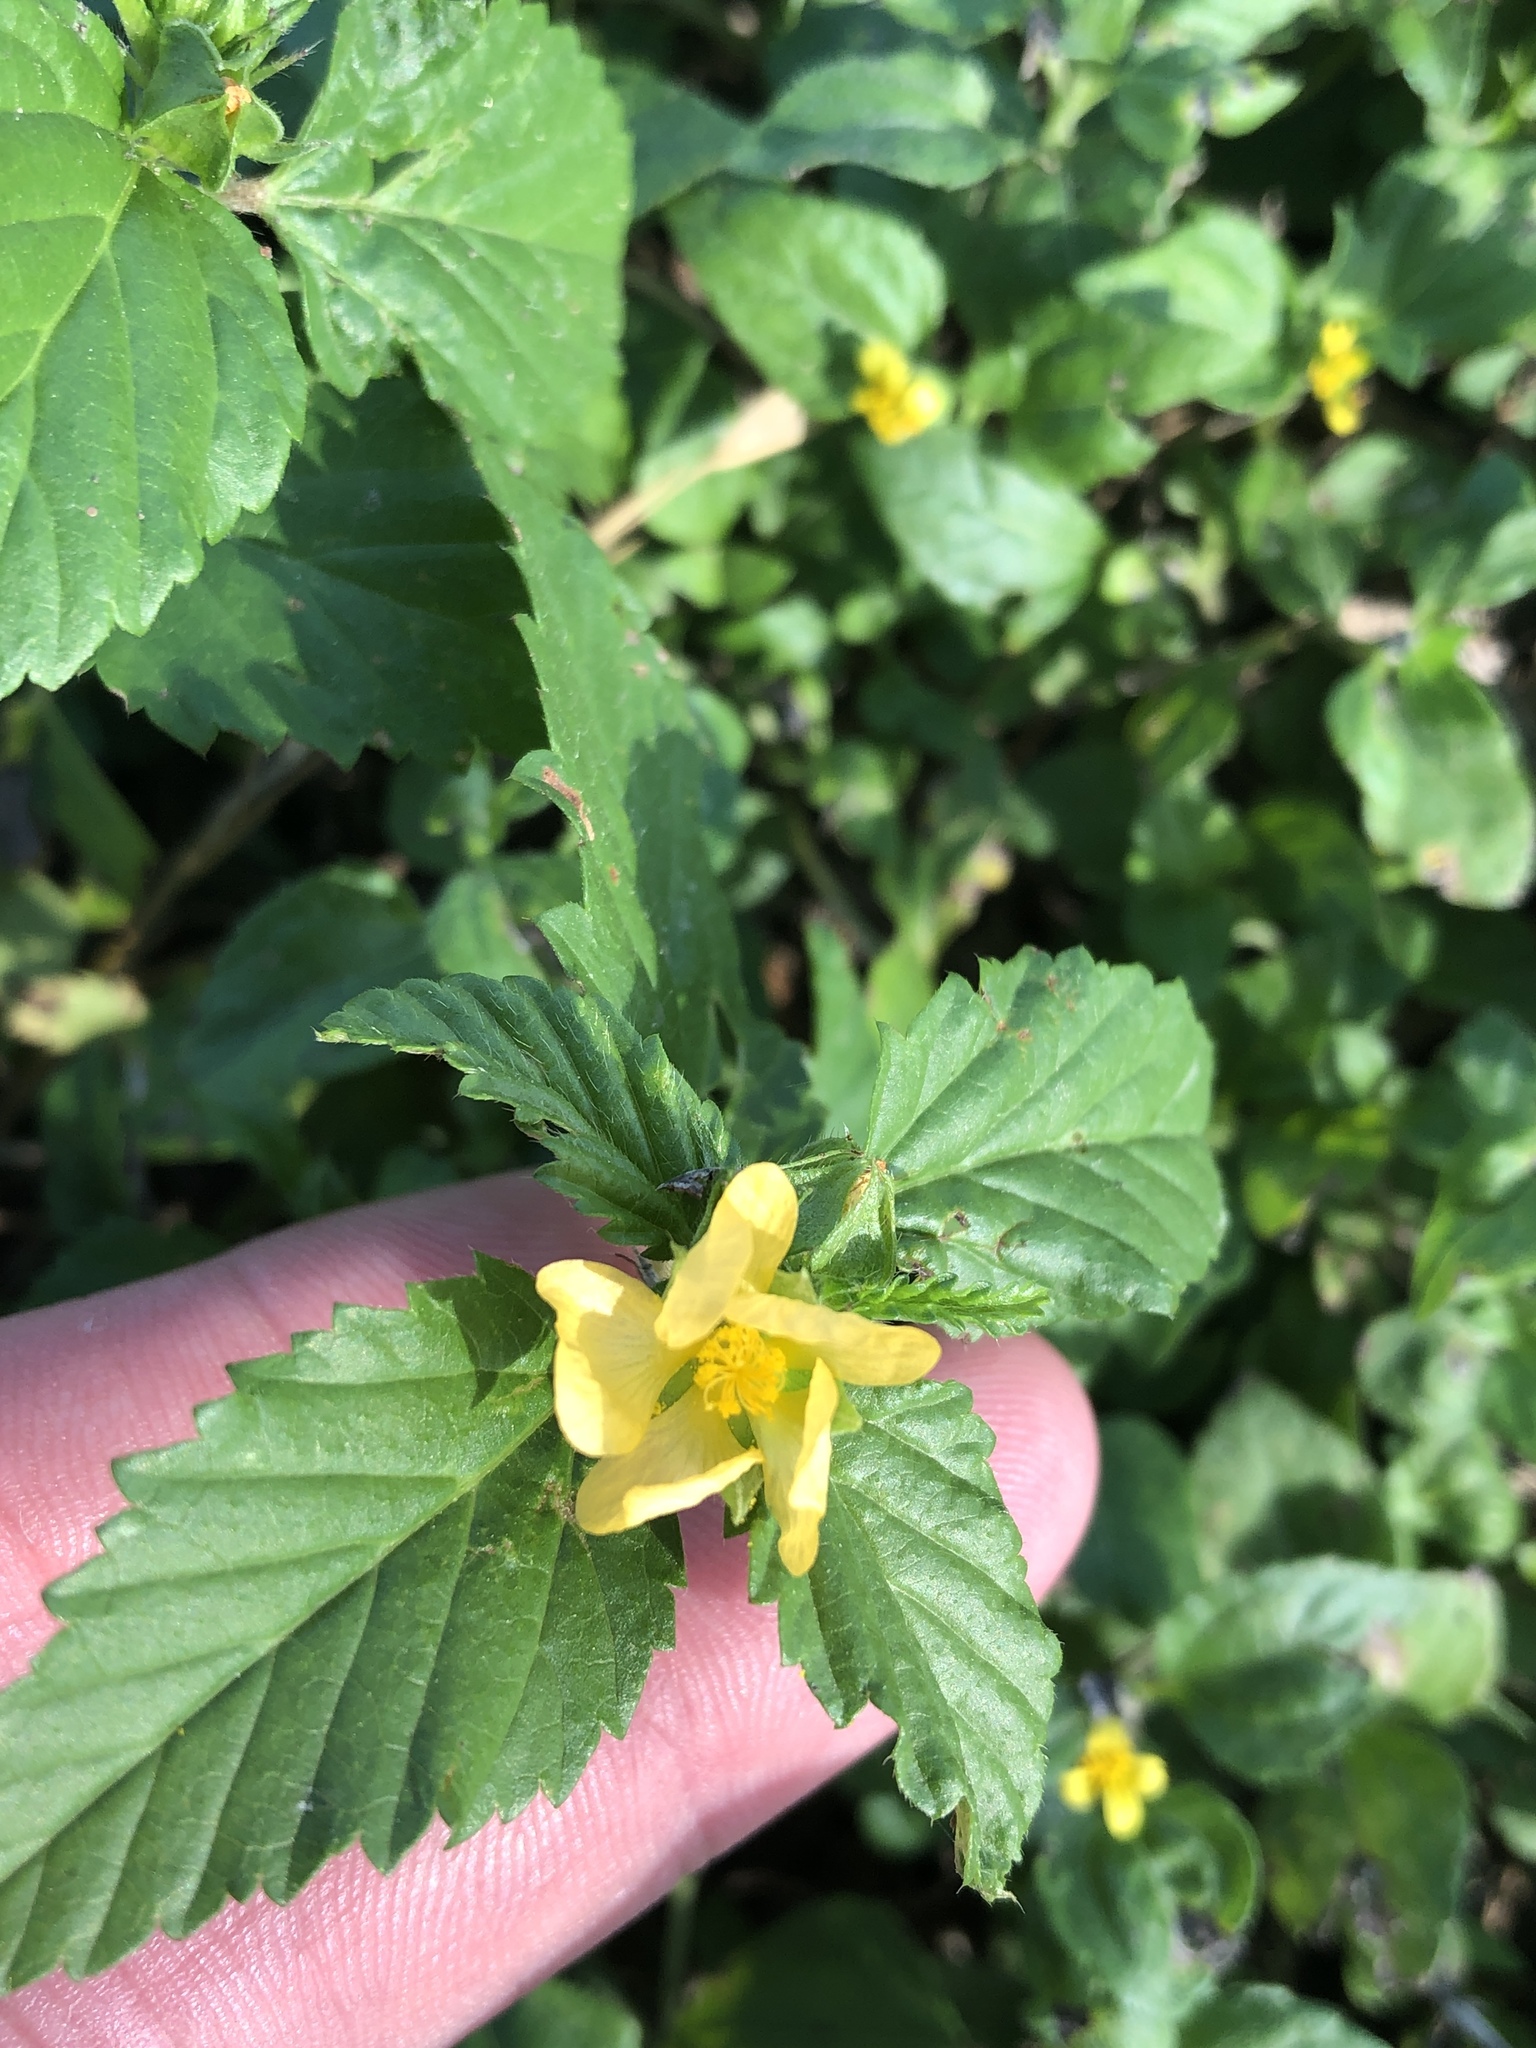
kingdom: Plantae
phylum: Tracheophyta
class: Magnoliopsida
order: Malvales
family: Malvaceae
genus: Malvastrum
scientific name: Malvastrum coromandelianum
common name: Threelobe false mallow
